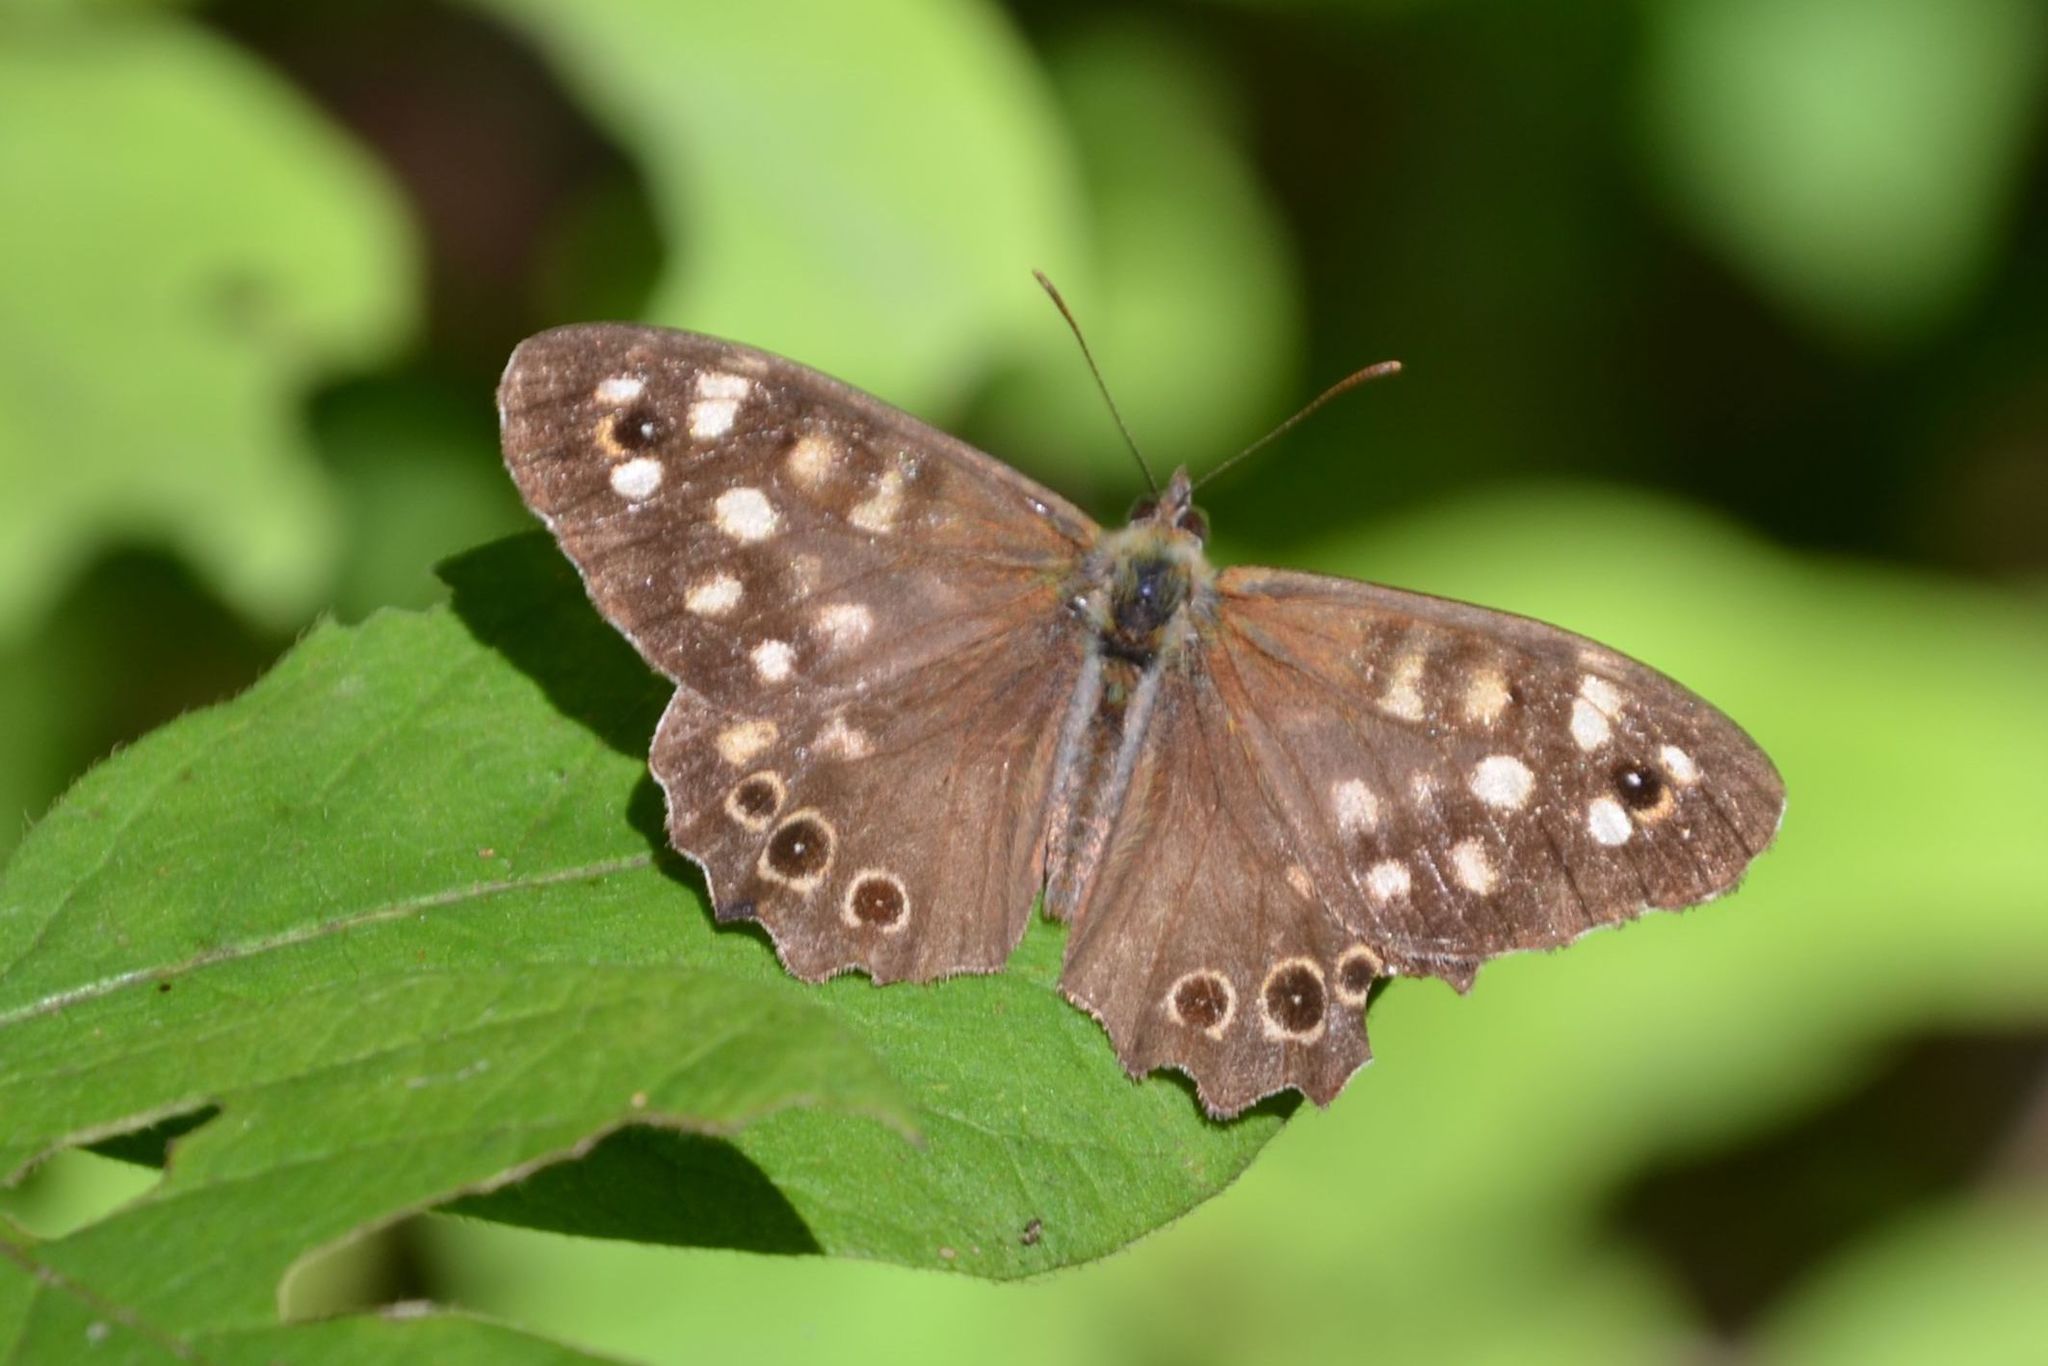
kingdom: Animalia
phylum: Arthropoda
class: Insecta
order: Lepidoptera
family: Nymphalidae
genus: Pararge
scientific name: Pararge aegeria
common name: Speckled wood
